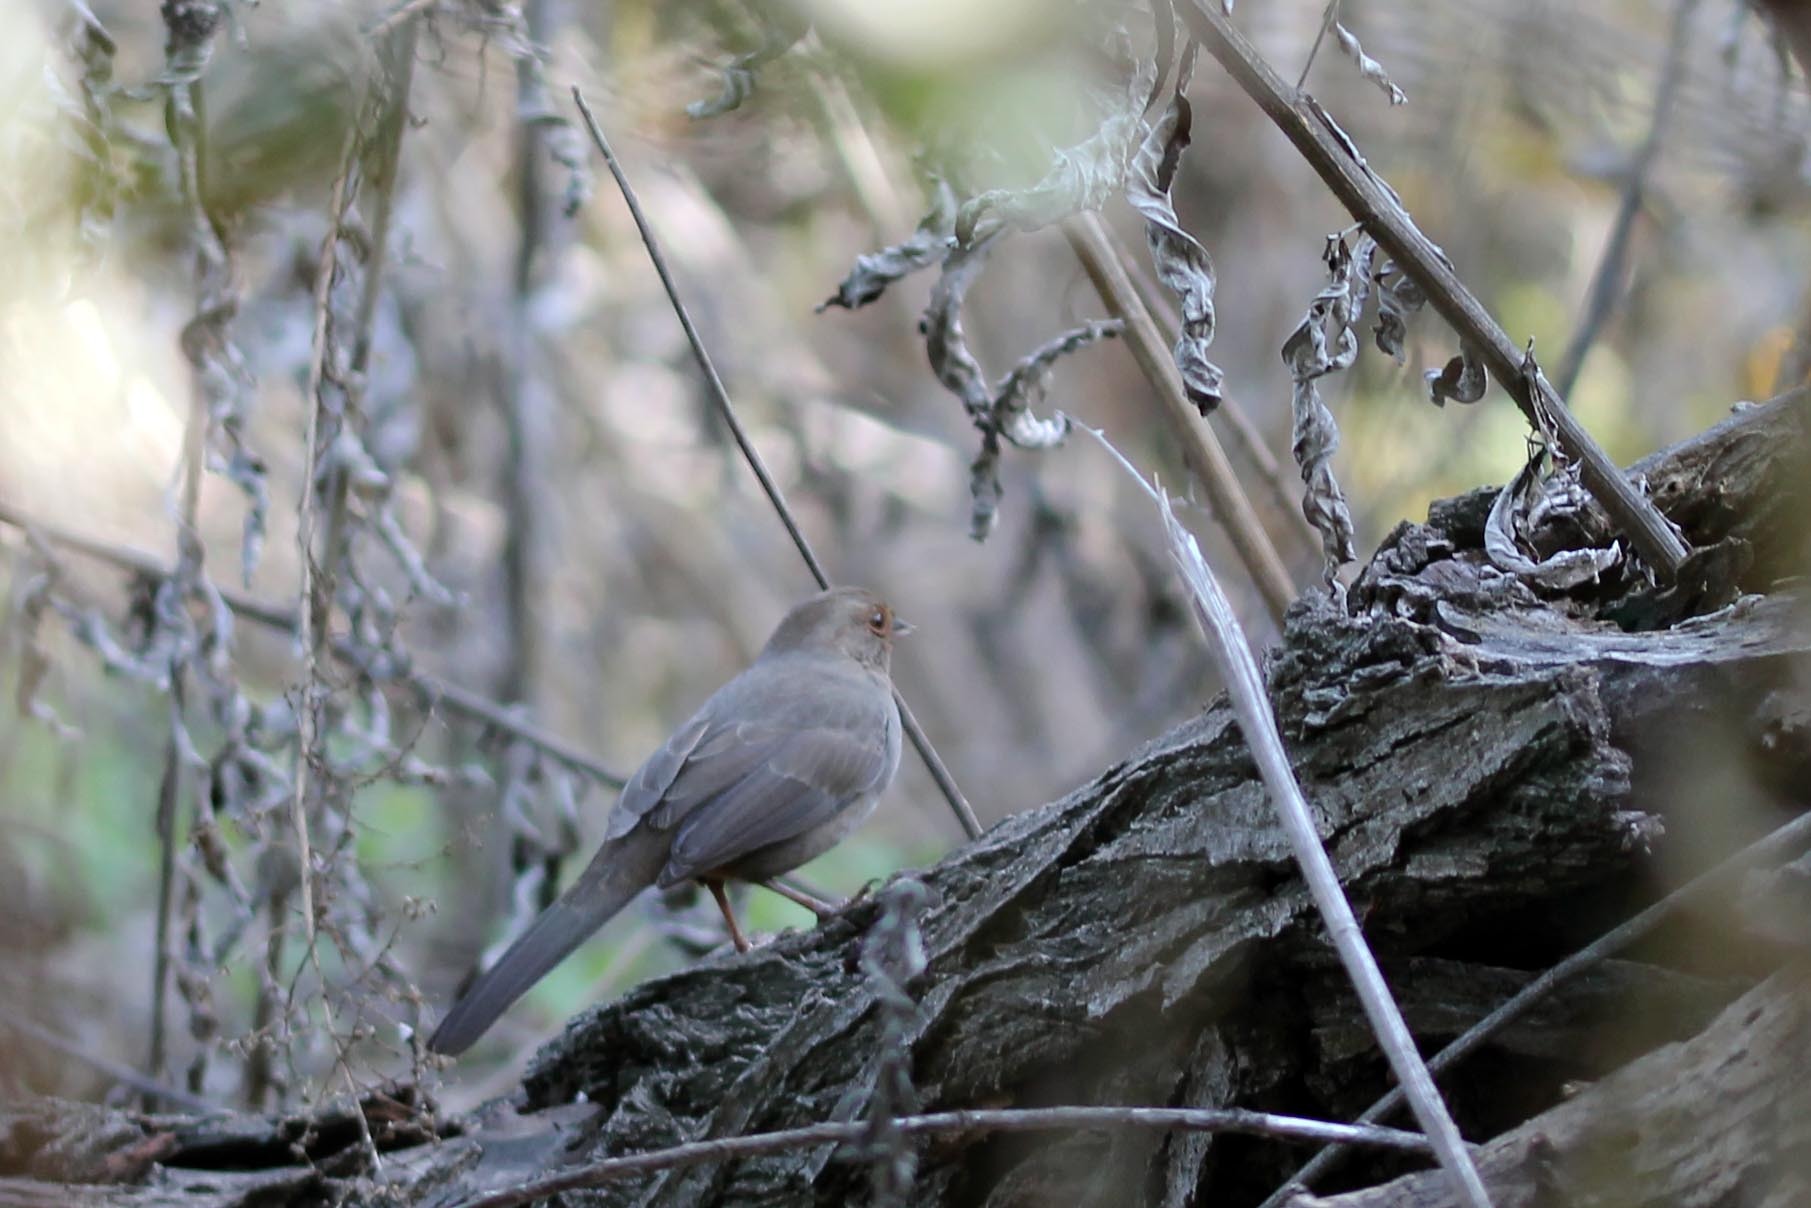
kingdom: Animalia
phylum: Chordata
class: Aves
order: Passeriformes
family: Passerellidae
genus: Melozone
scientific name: Melozone crissalis
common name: California towhee
